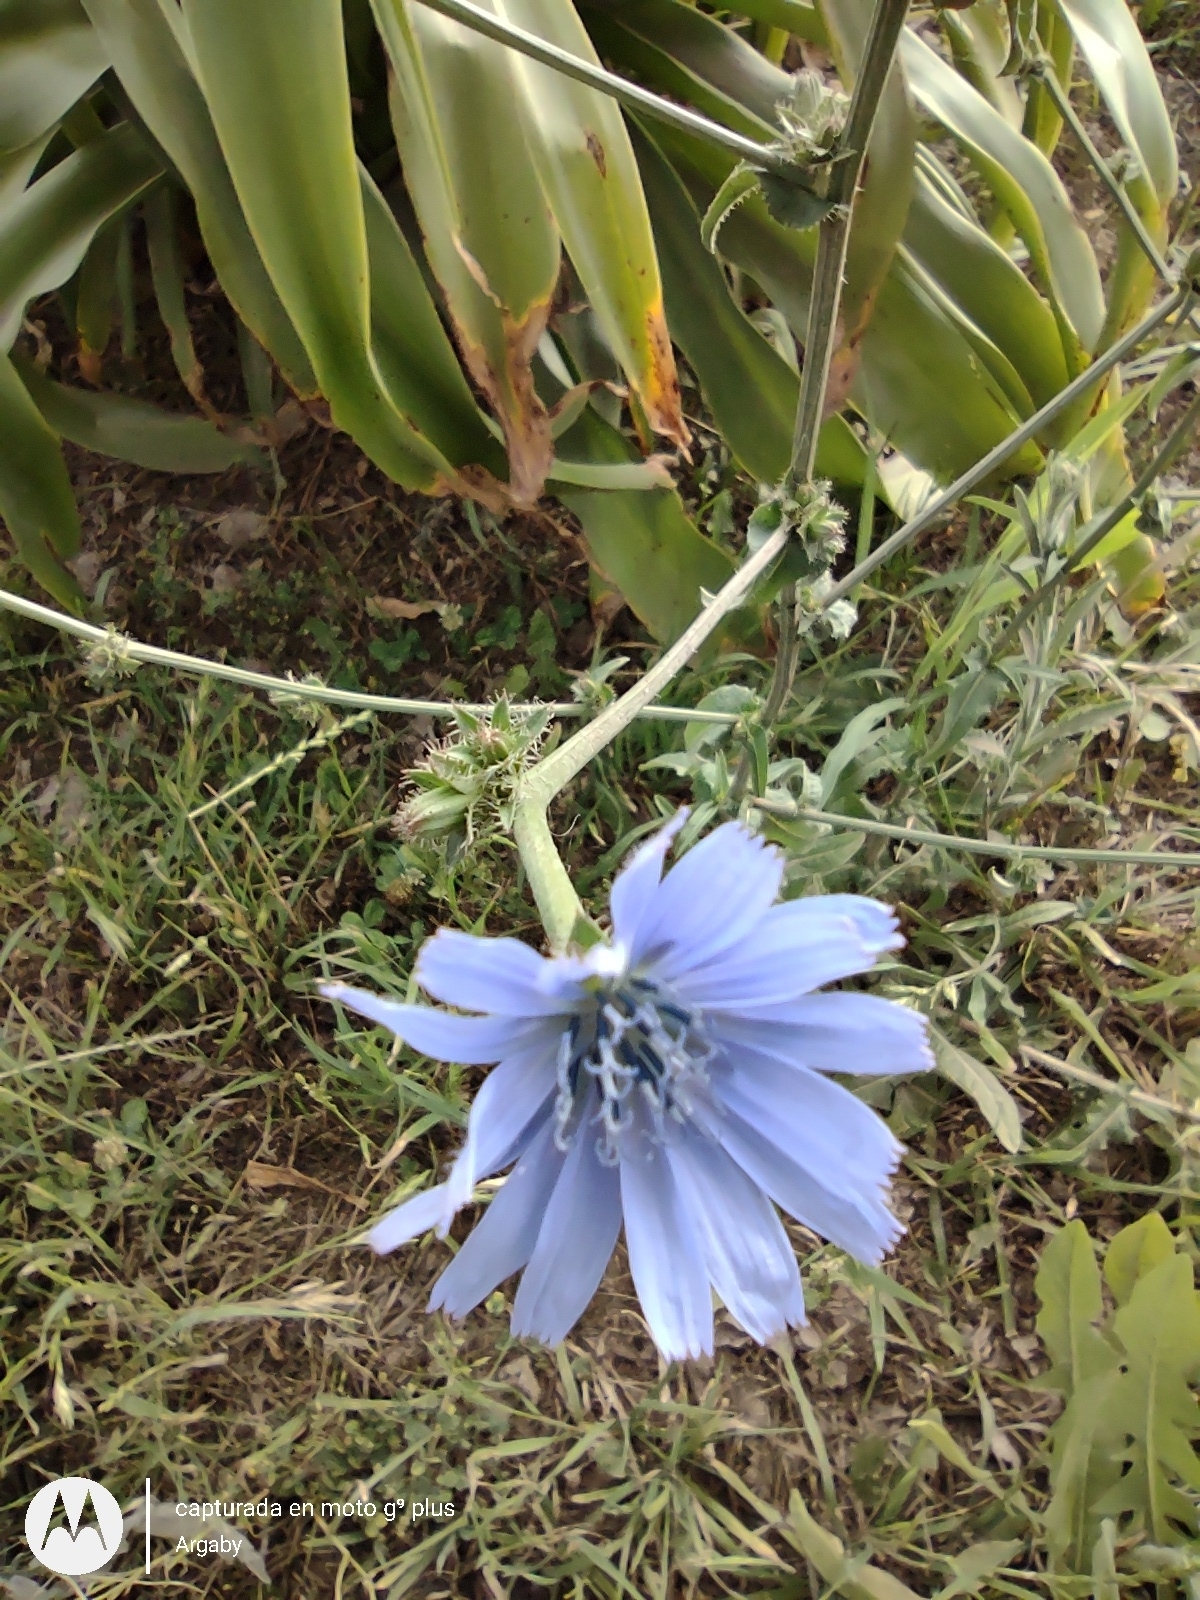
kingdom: Plantae
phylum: Tracheophyta
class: Magnoliopsida
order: Asterales
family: Asteraceae
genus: Cichorium
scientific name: Cichorium intybus
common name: Chicory
